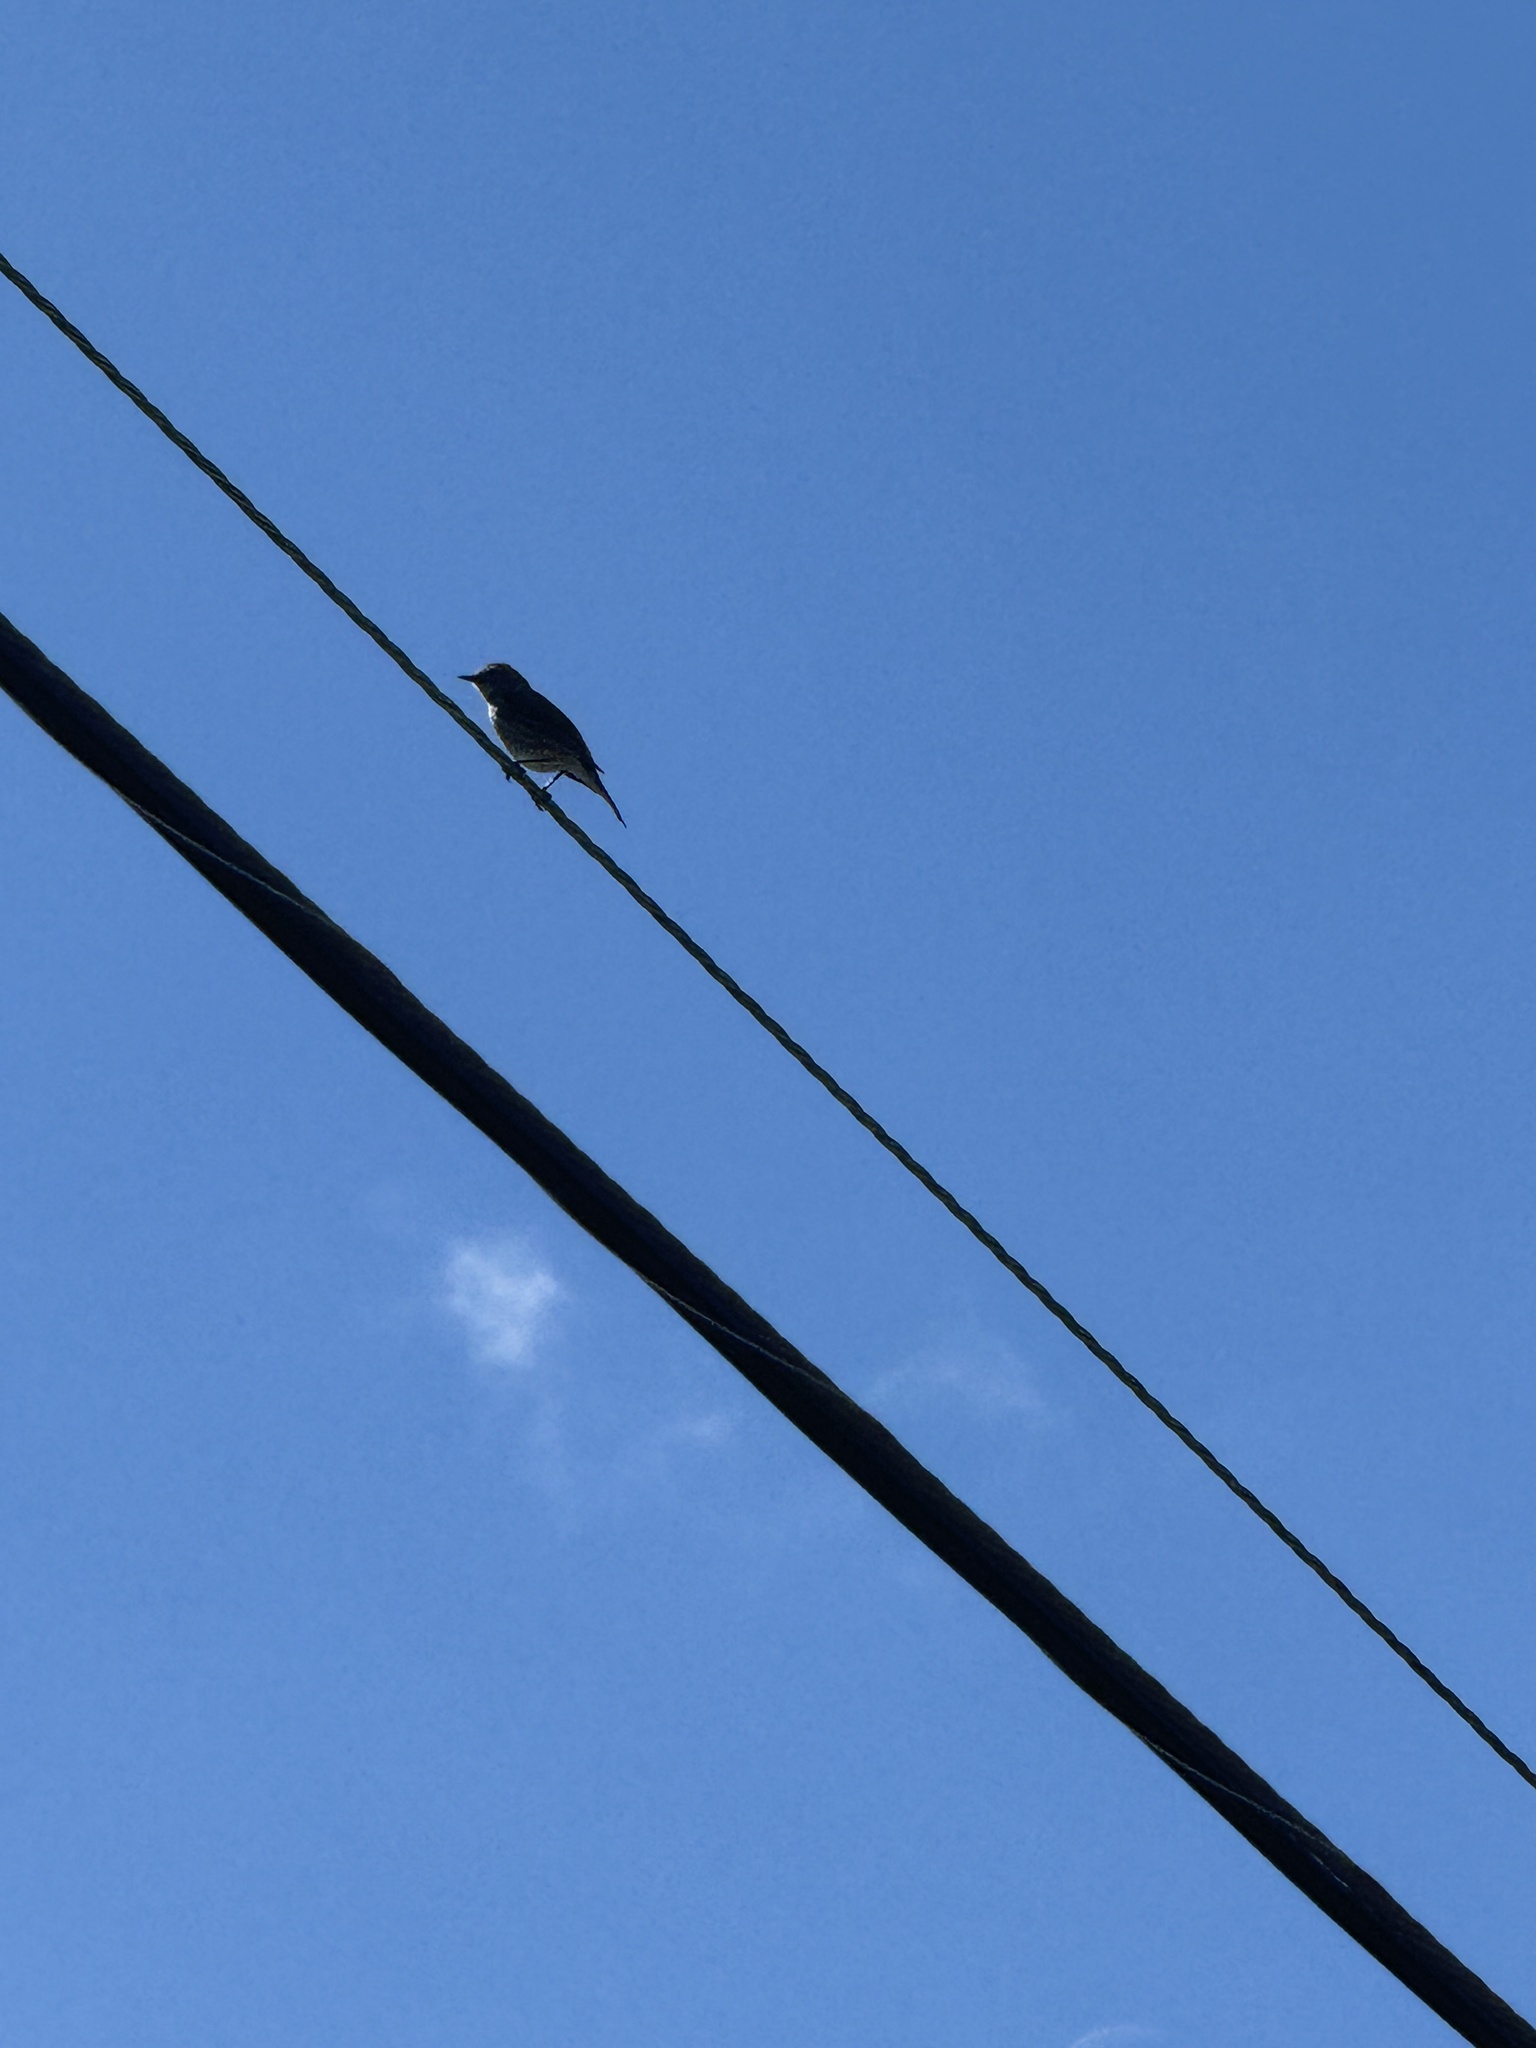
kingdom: Animalia
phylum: Chordata
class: Aves
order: Passeriformes
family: Parulidae
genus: Setophaga
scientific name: Setophaga coronata
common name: Myrtle warbler
